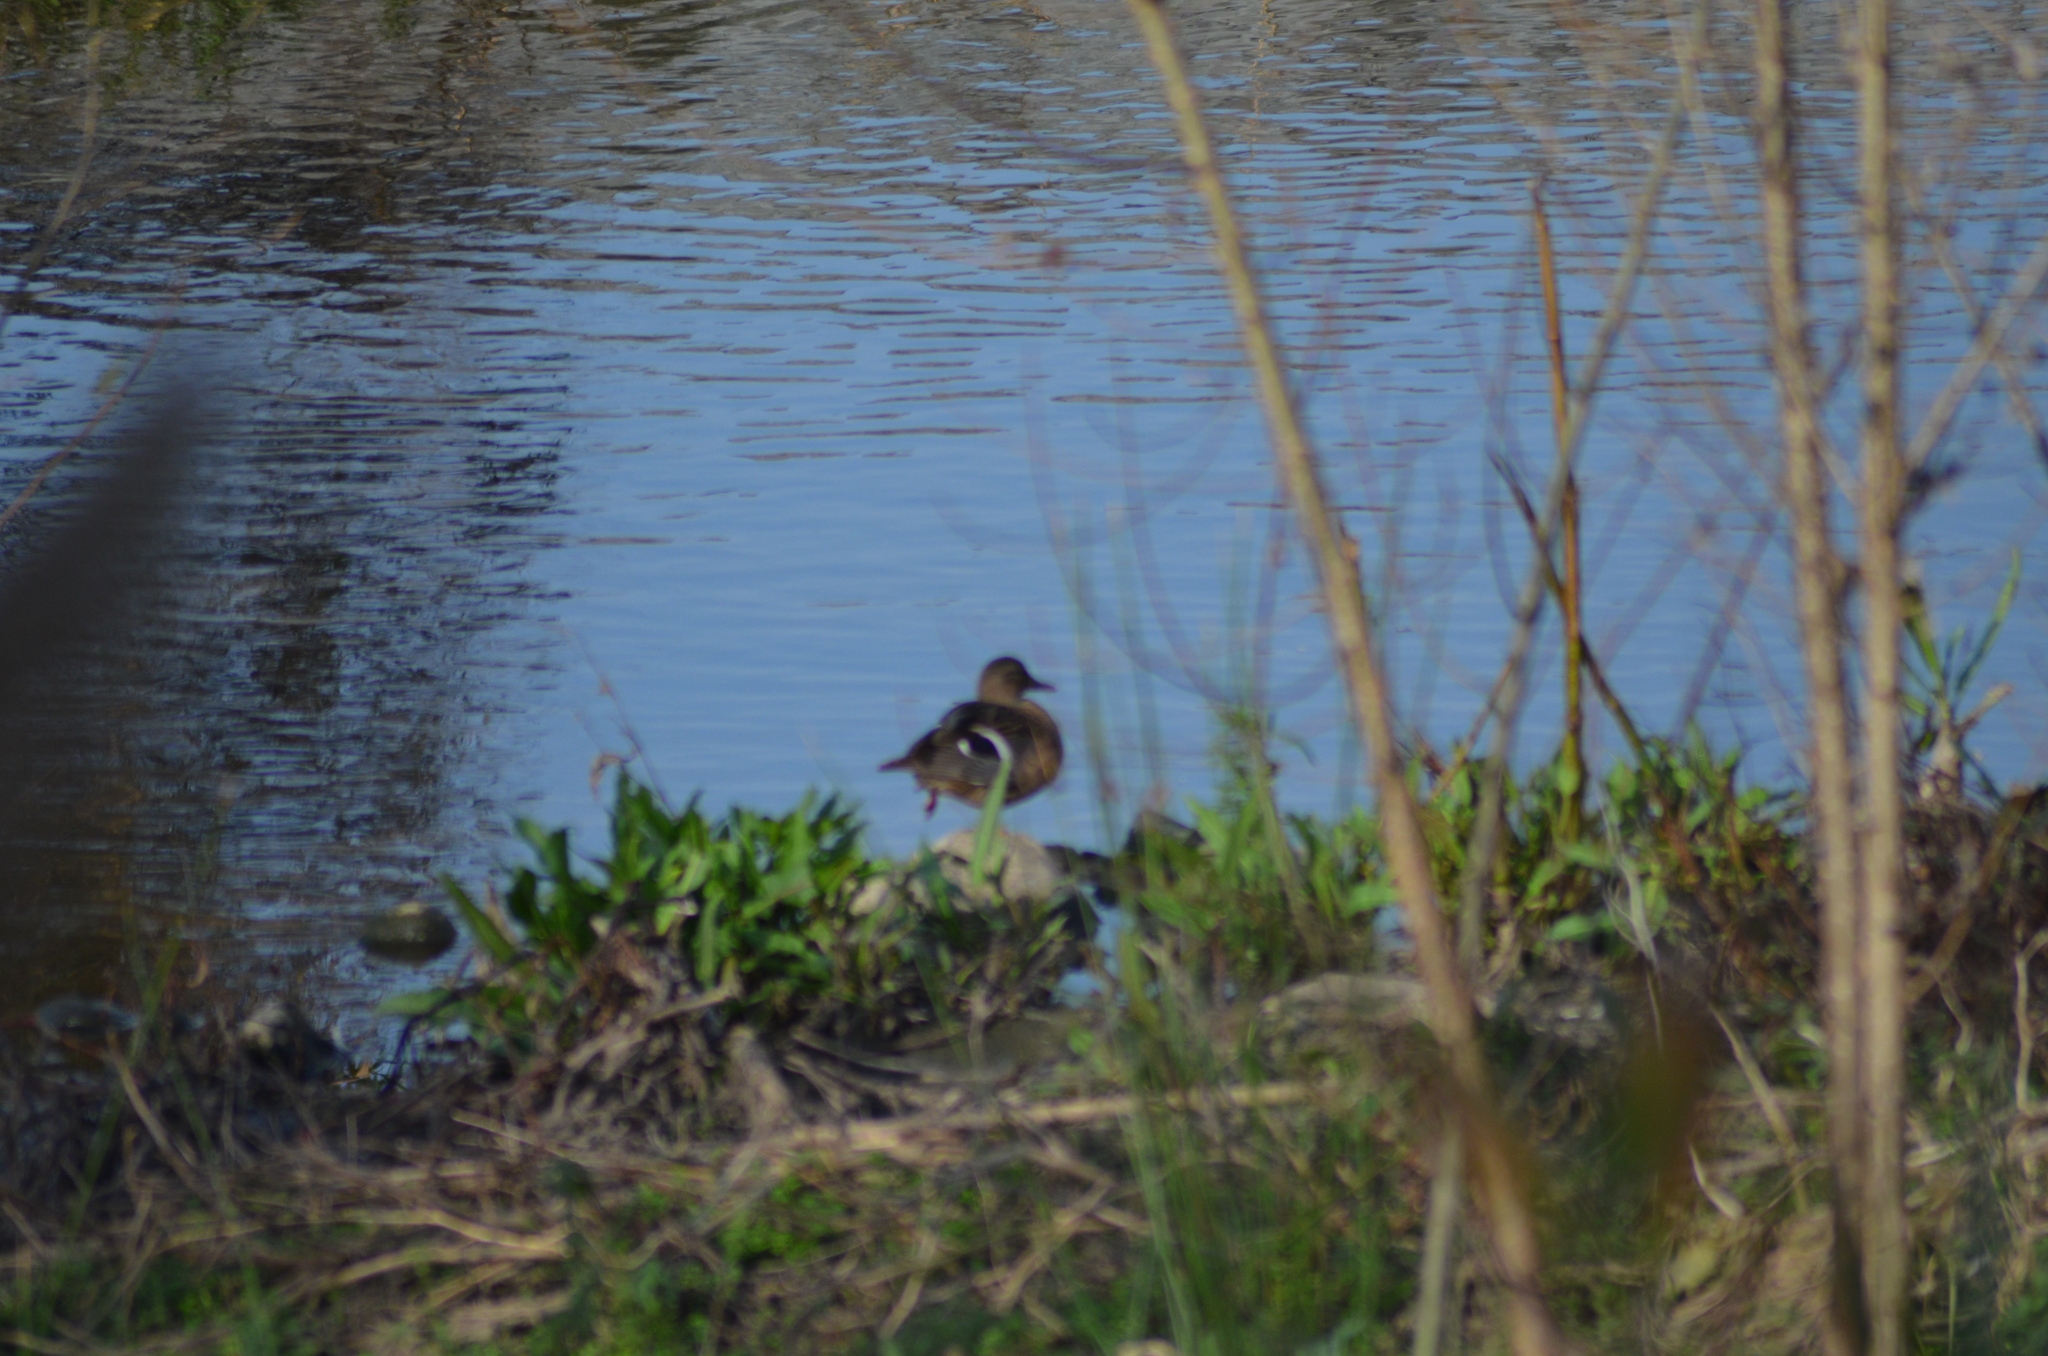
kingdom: Animalia
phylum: Chordata
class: Aves
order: Anseriformes
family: Anatidae
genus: Anas
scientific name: Anas platyrhynchos
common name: Mallard
